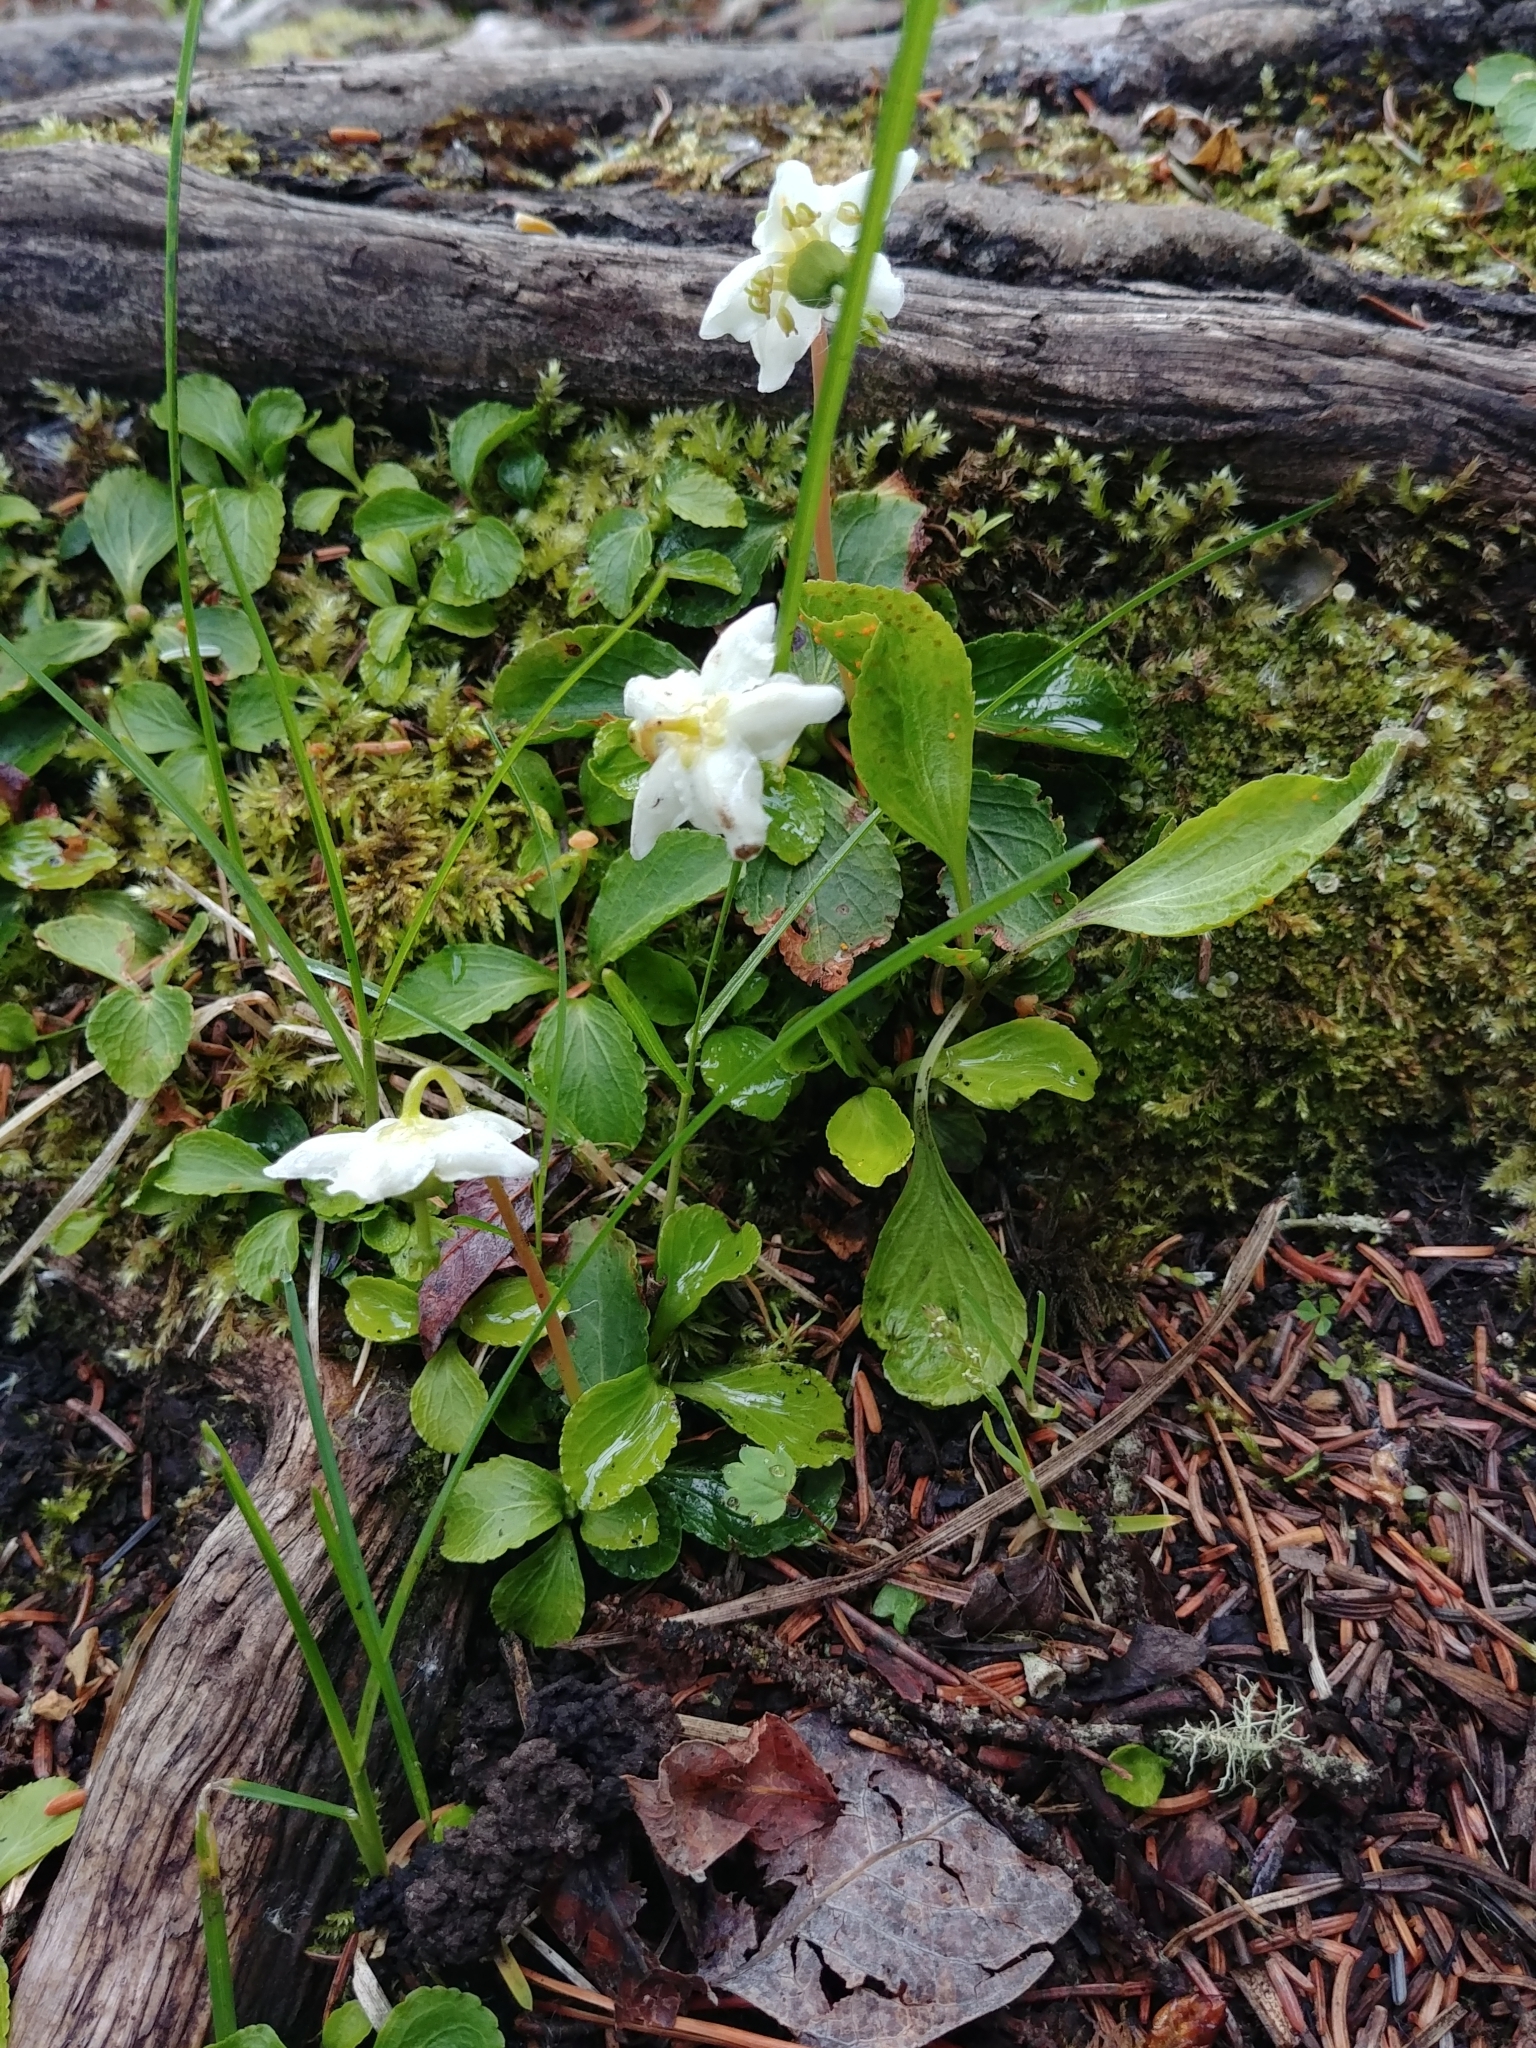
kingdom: Plantae
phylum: Tracheophyta
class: Magnoliopsida
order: Ericales
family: Ericaceae
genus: Moneses
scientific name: Moneses uniflora
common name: One-flowered wintergreen
